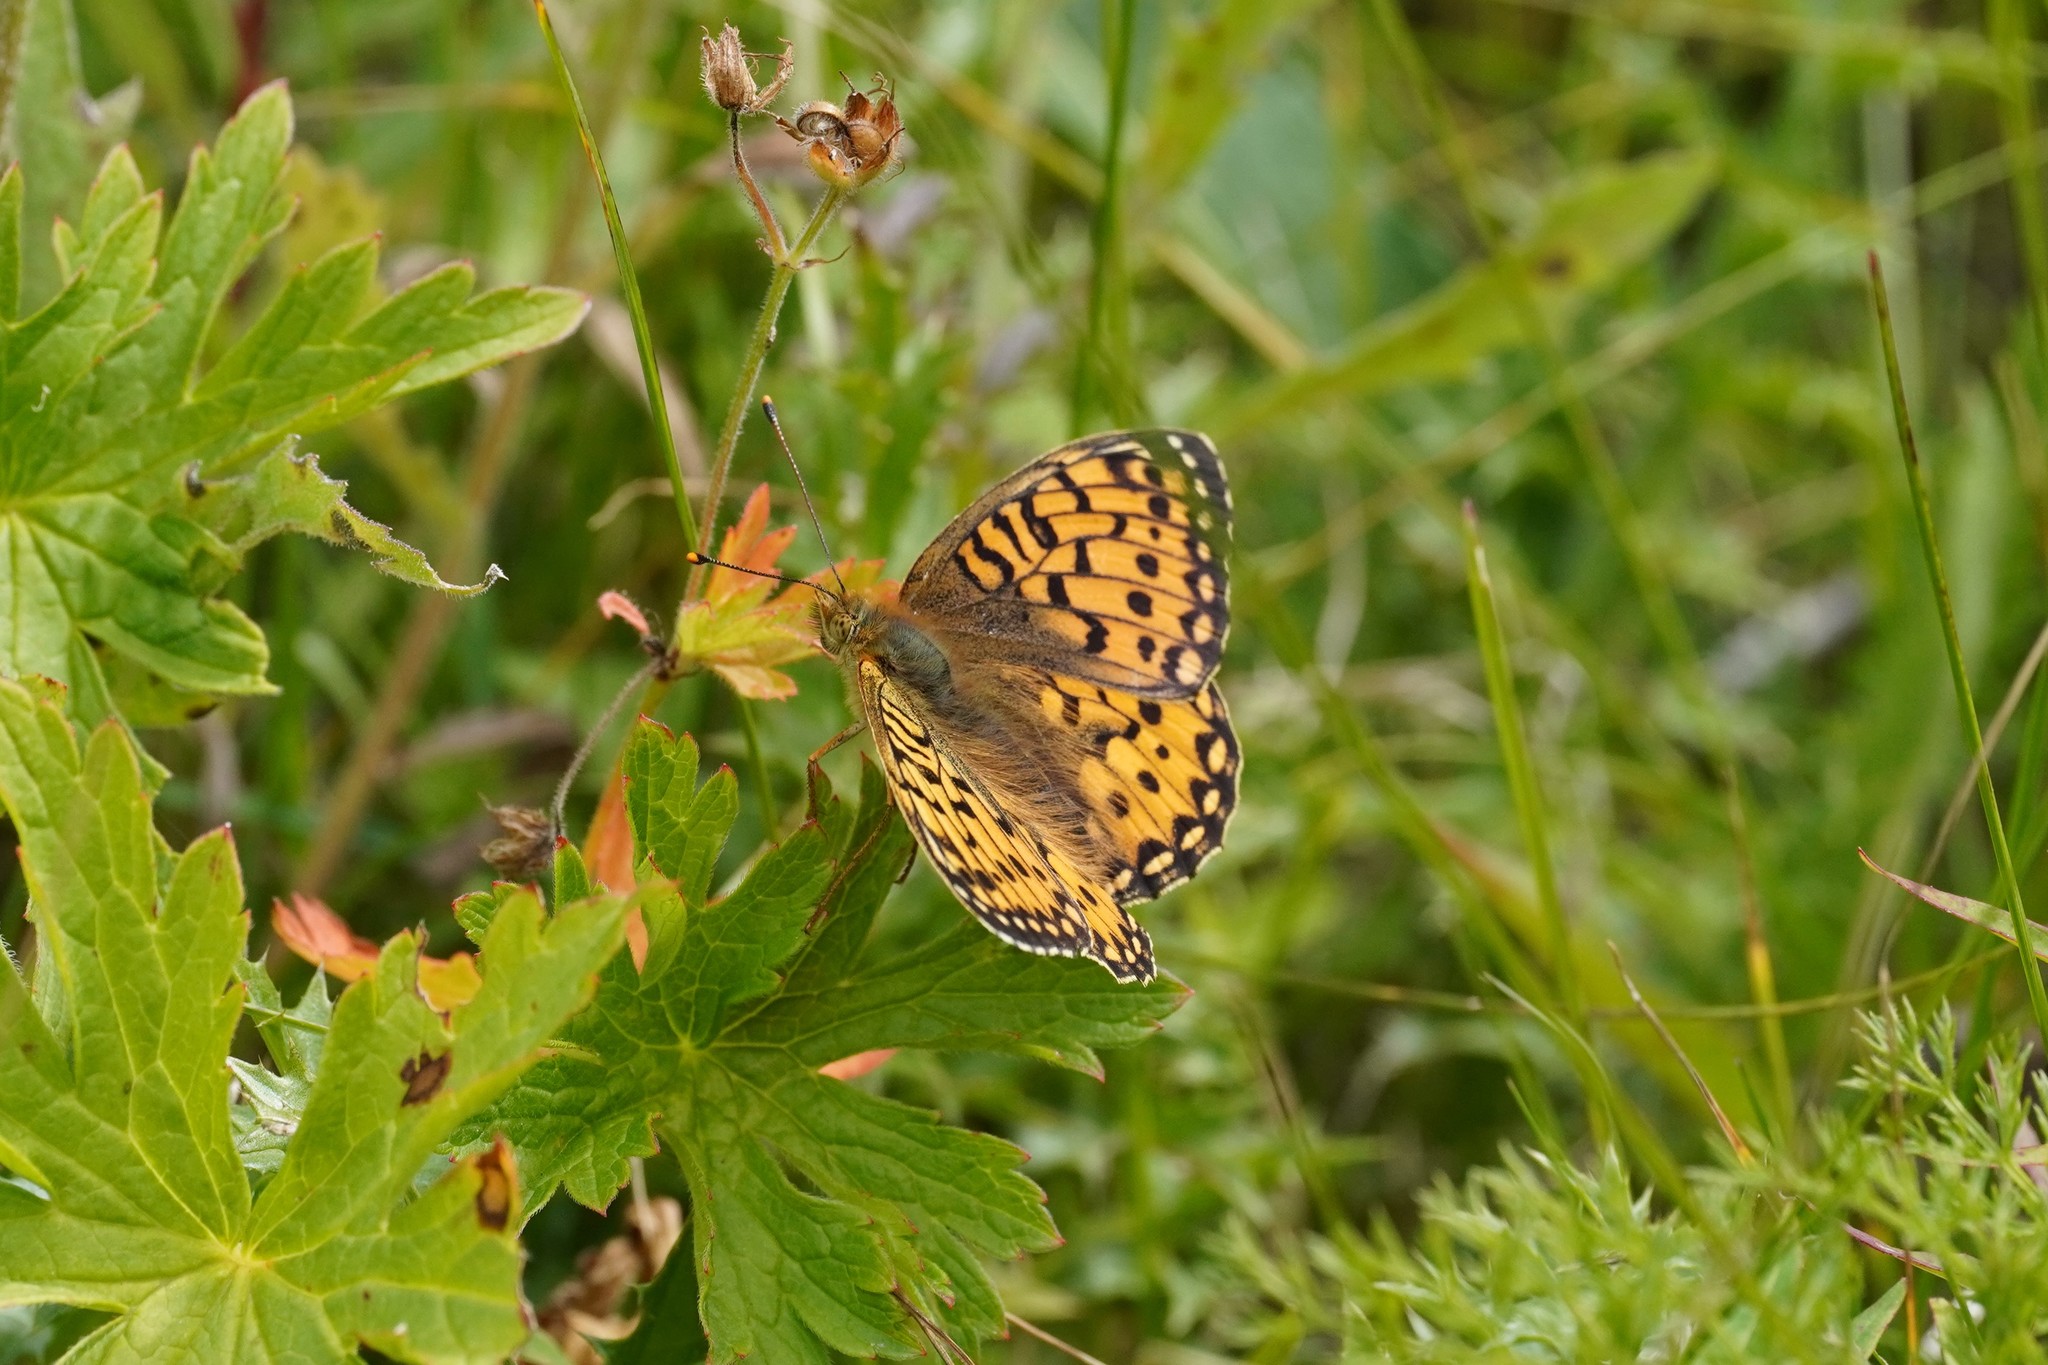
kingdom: Animalia
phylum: Arthropoda
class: Insecta
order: Lepidoptera
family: Nymphalidae
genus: Speyeria
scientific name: Speyeria aglaja
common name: Dark green fritillary
